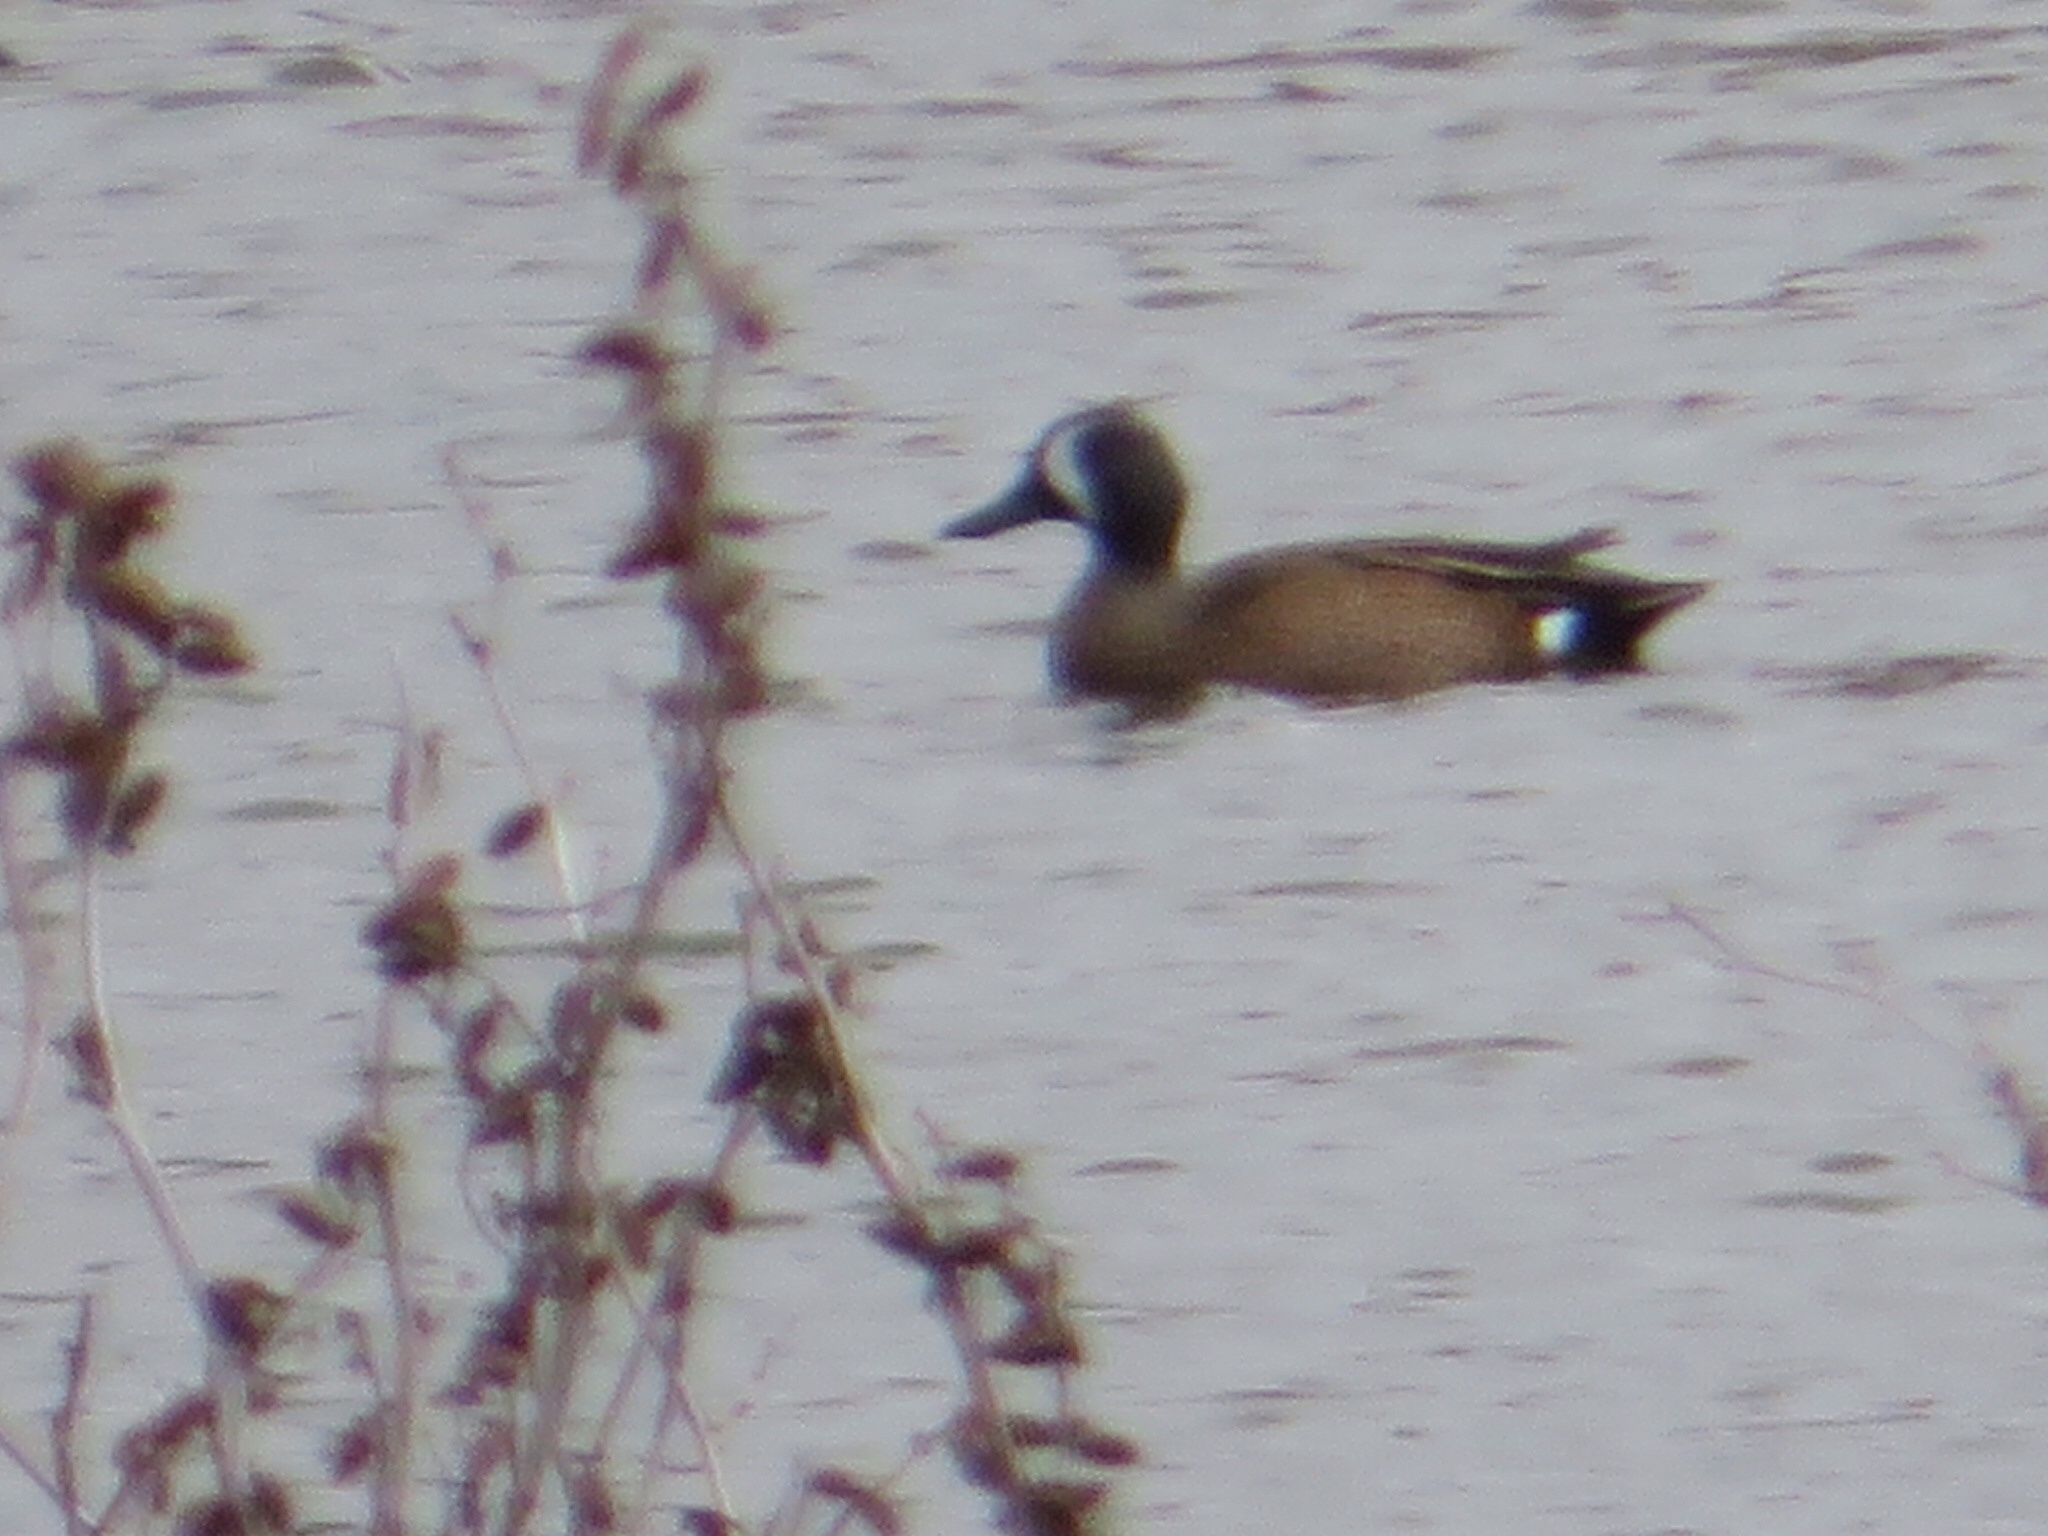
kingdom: Animalia
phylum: Chordata
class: Aves
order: Anseriformes
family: Anatidae
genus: Spatula
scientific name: Spatula discors
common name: Blue-winged teal
